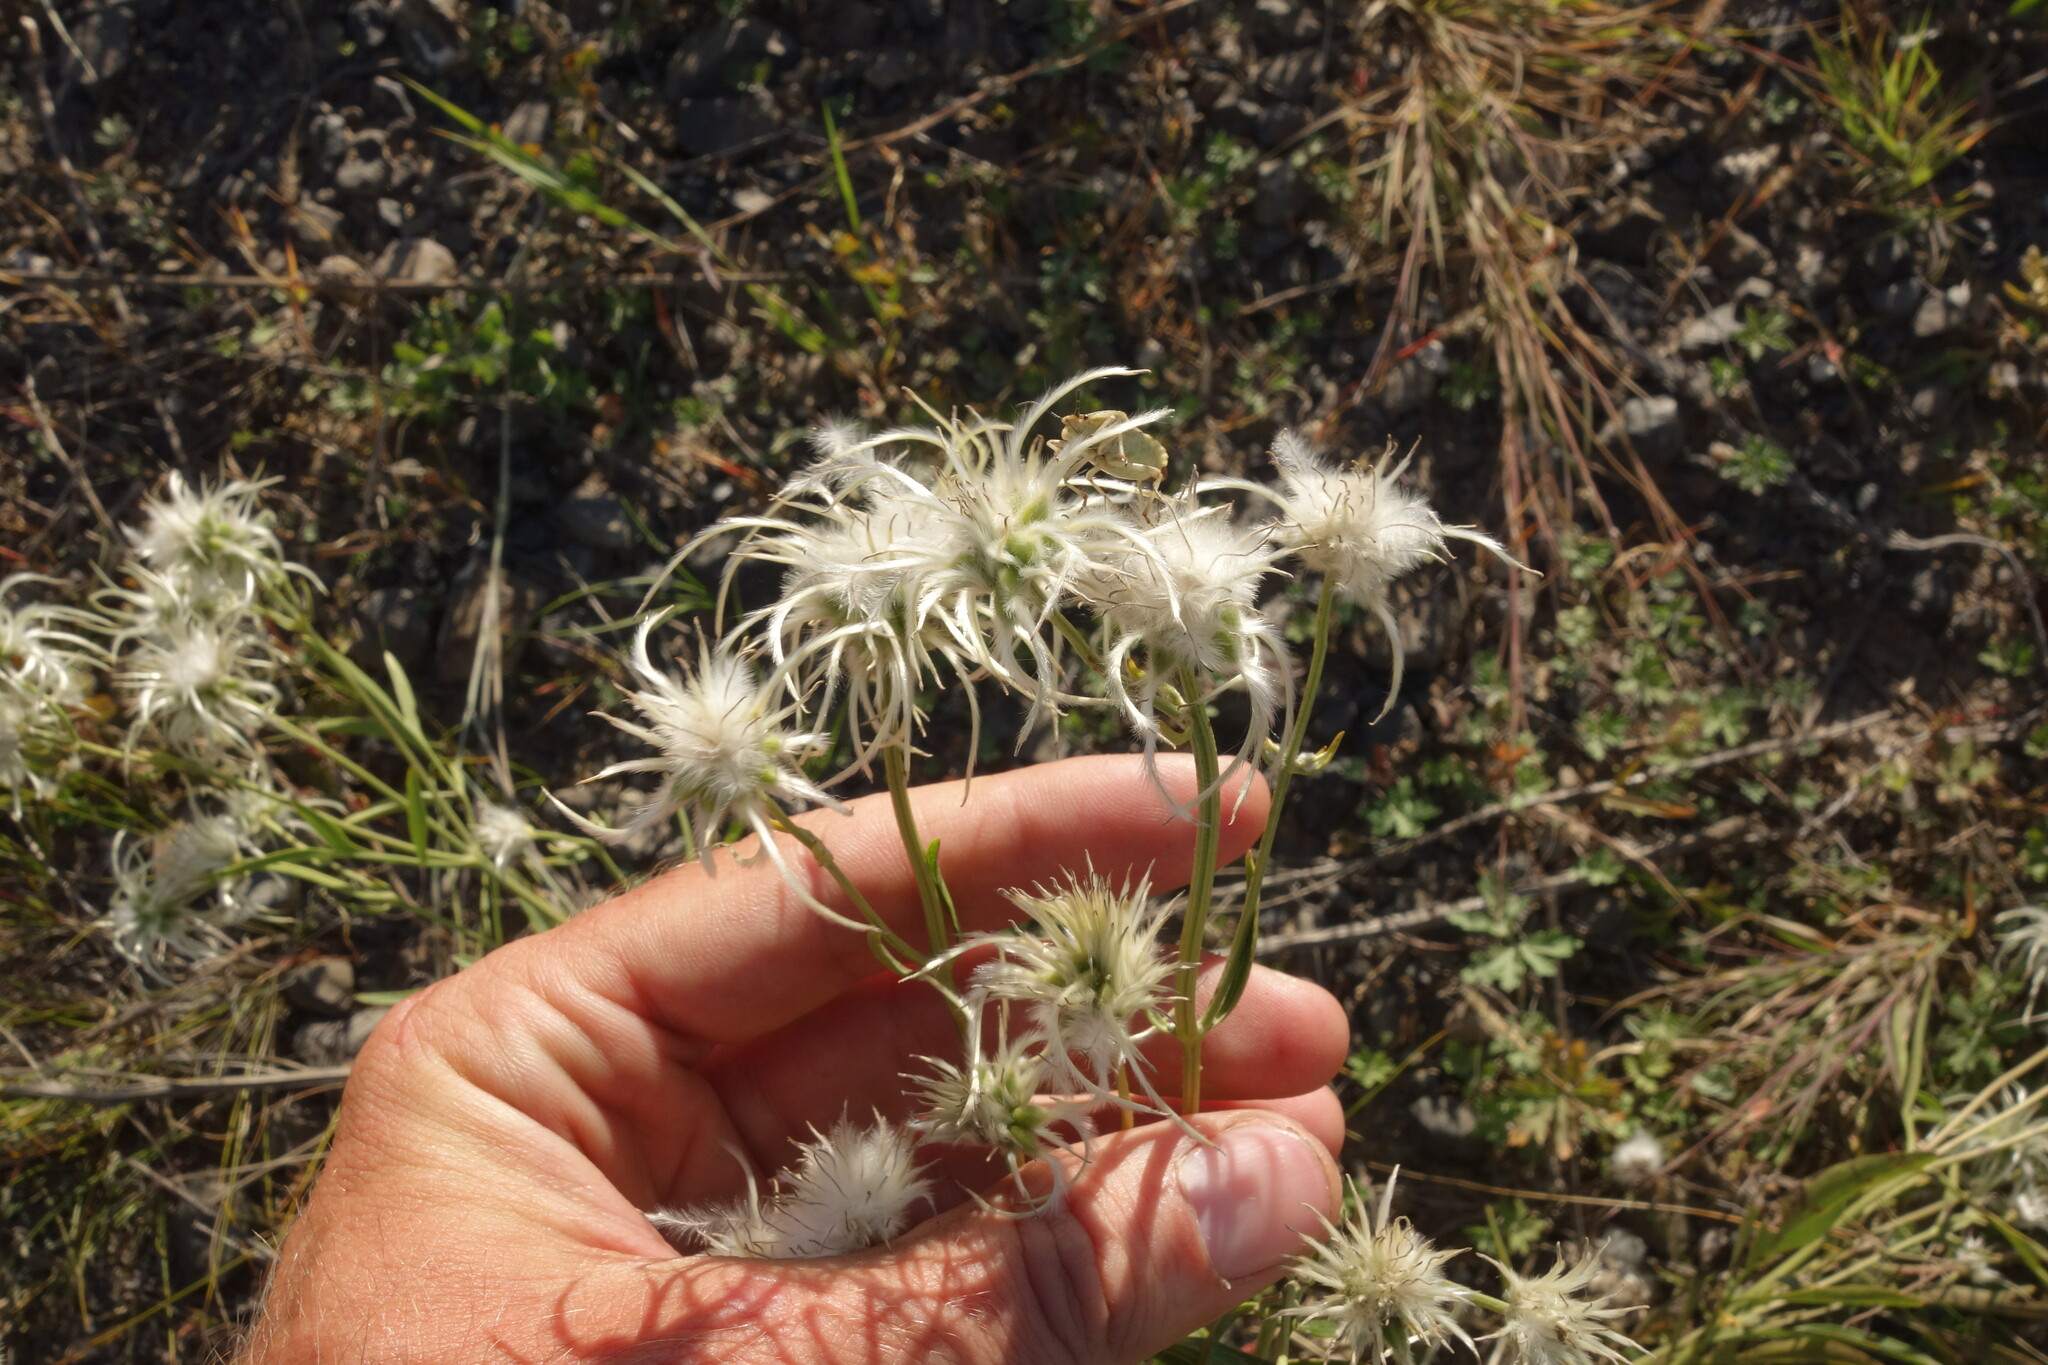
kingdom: Plantae
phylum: Tracheophyta
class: Magnoliopsida
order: Ranunculales
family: Ranunculaceae
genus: Clematis
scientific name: Clematis hexapetala
